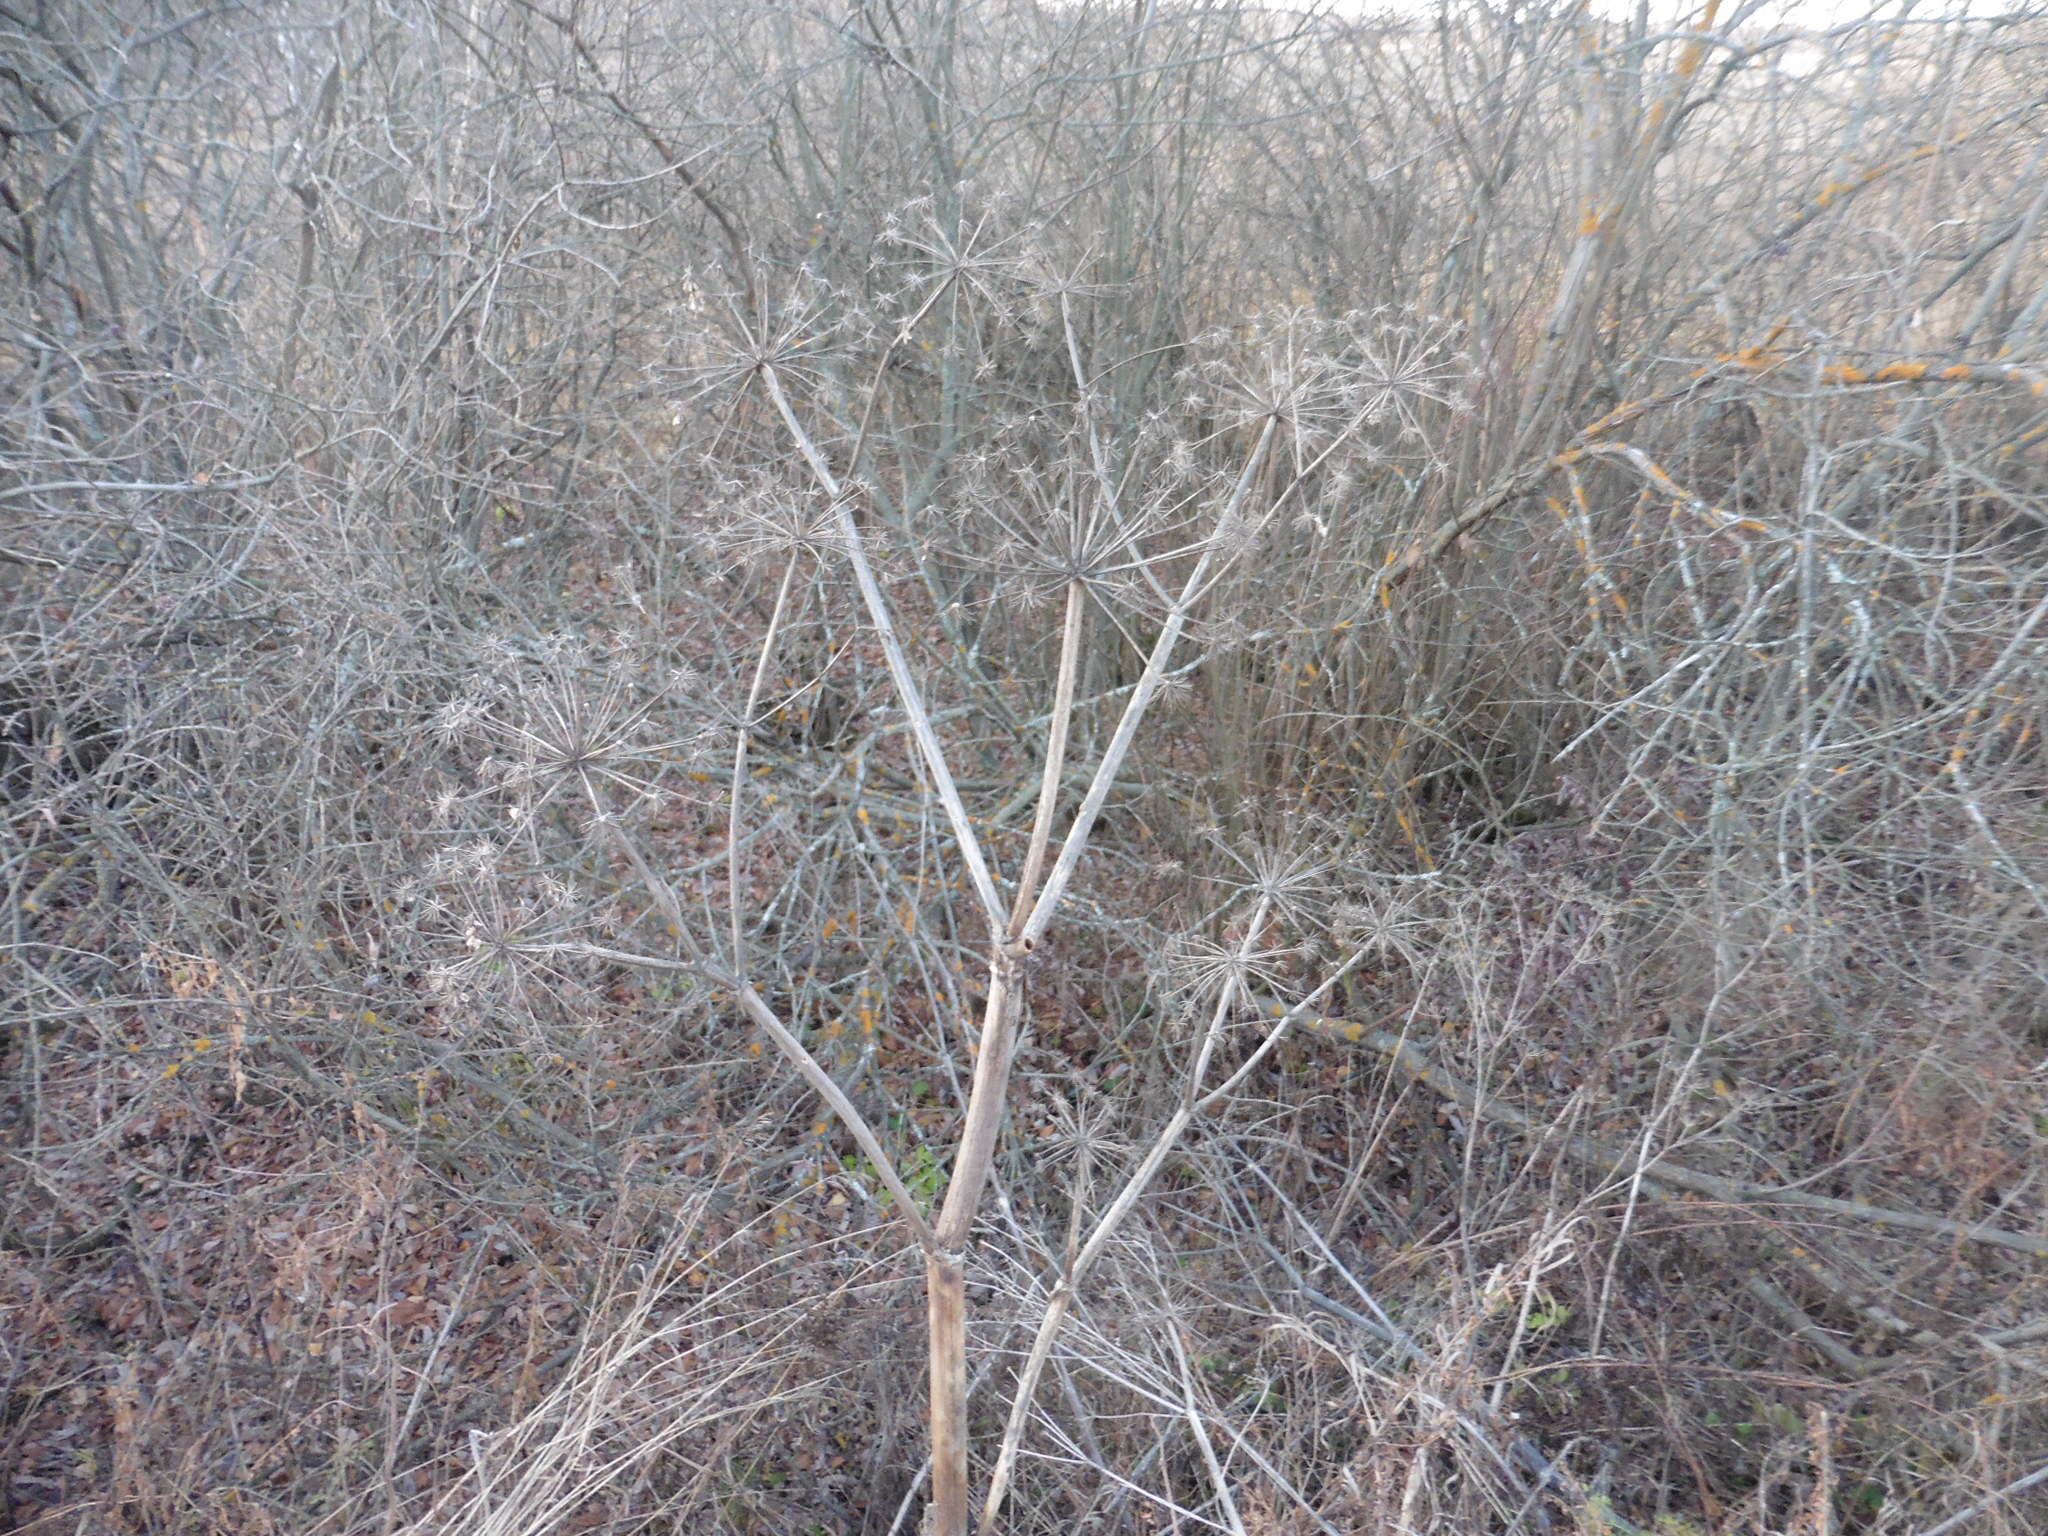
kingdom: Plantae
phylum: Tracheophyta
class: Magnoliopsida
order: Apiales
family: Apiaceae
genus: Angelica
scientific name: Angelica archangelica
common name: Garden angelica
